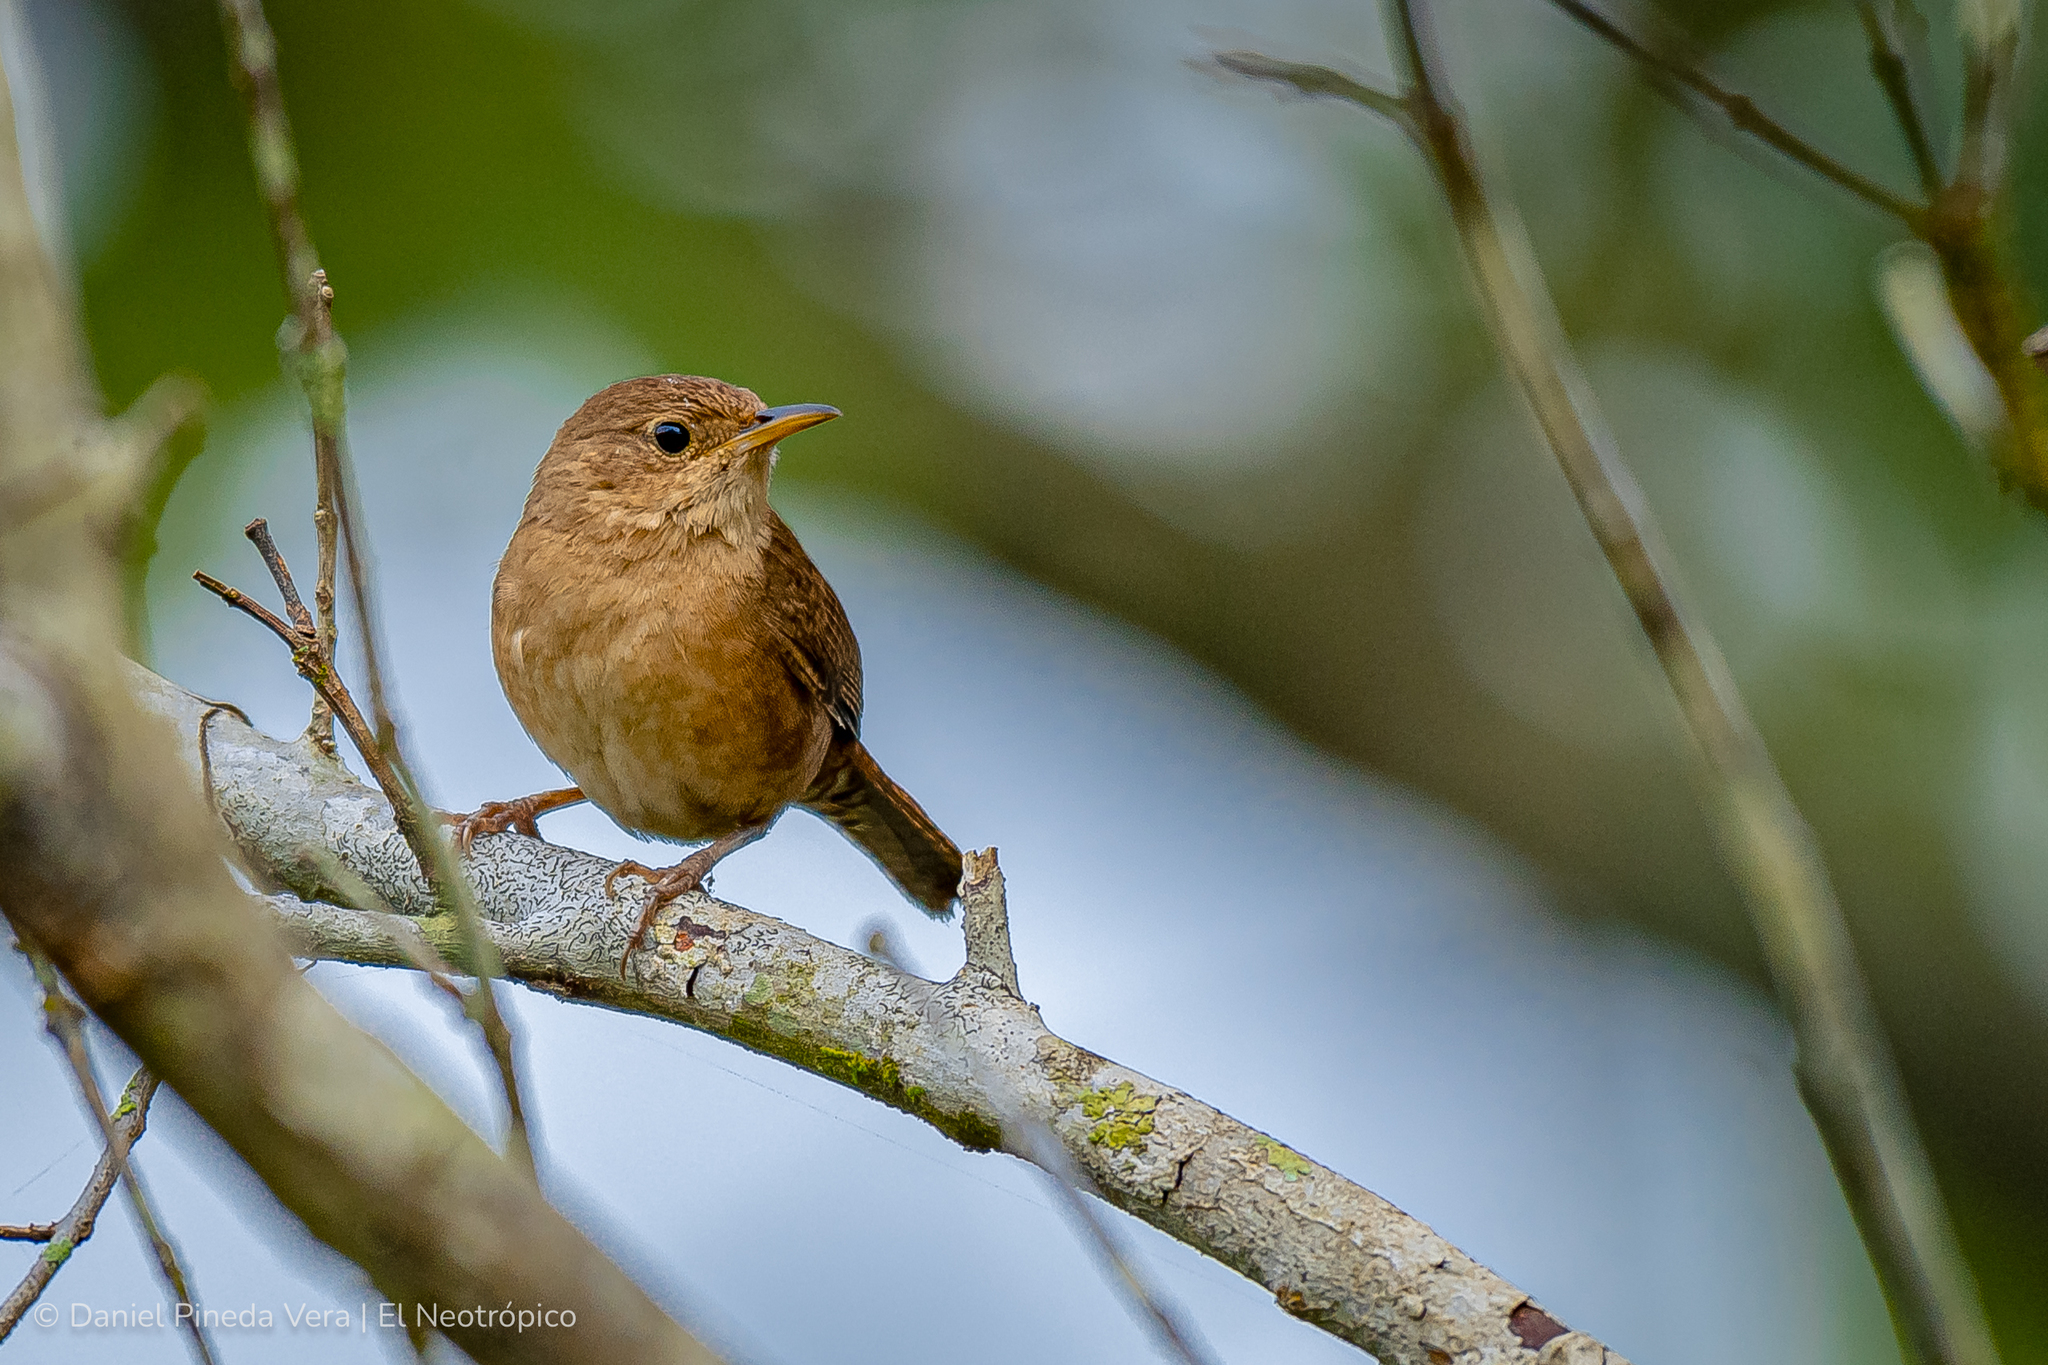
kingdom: Animalia
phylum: Chordata
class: Aves
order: Passeriformes
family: Troglodytidae
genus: Troglodytes
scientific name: Troglodytes aedon
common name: House wren
